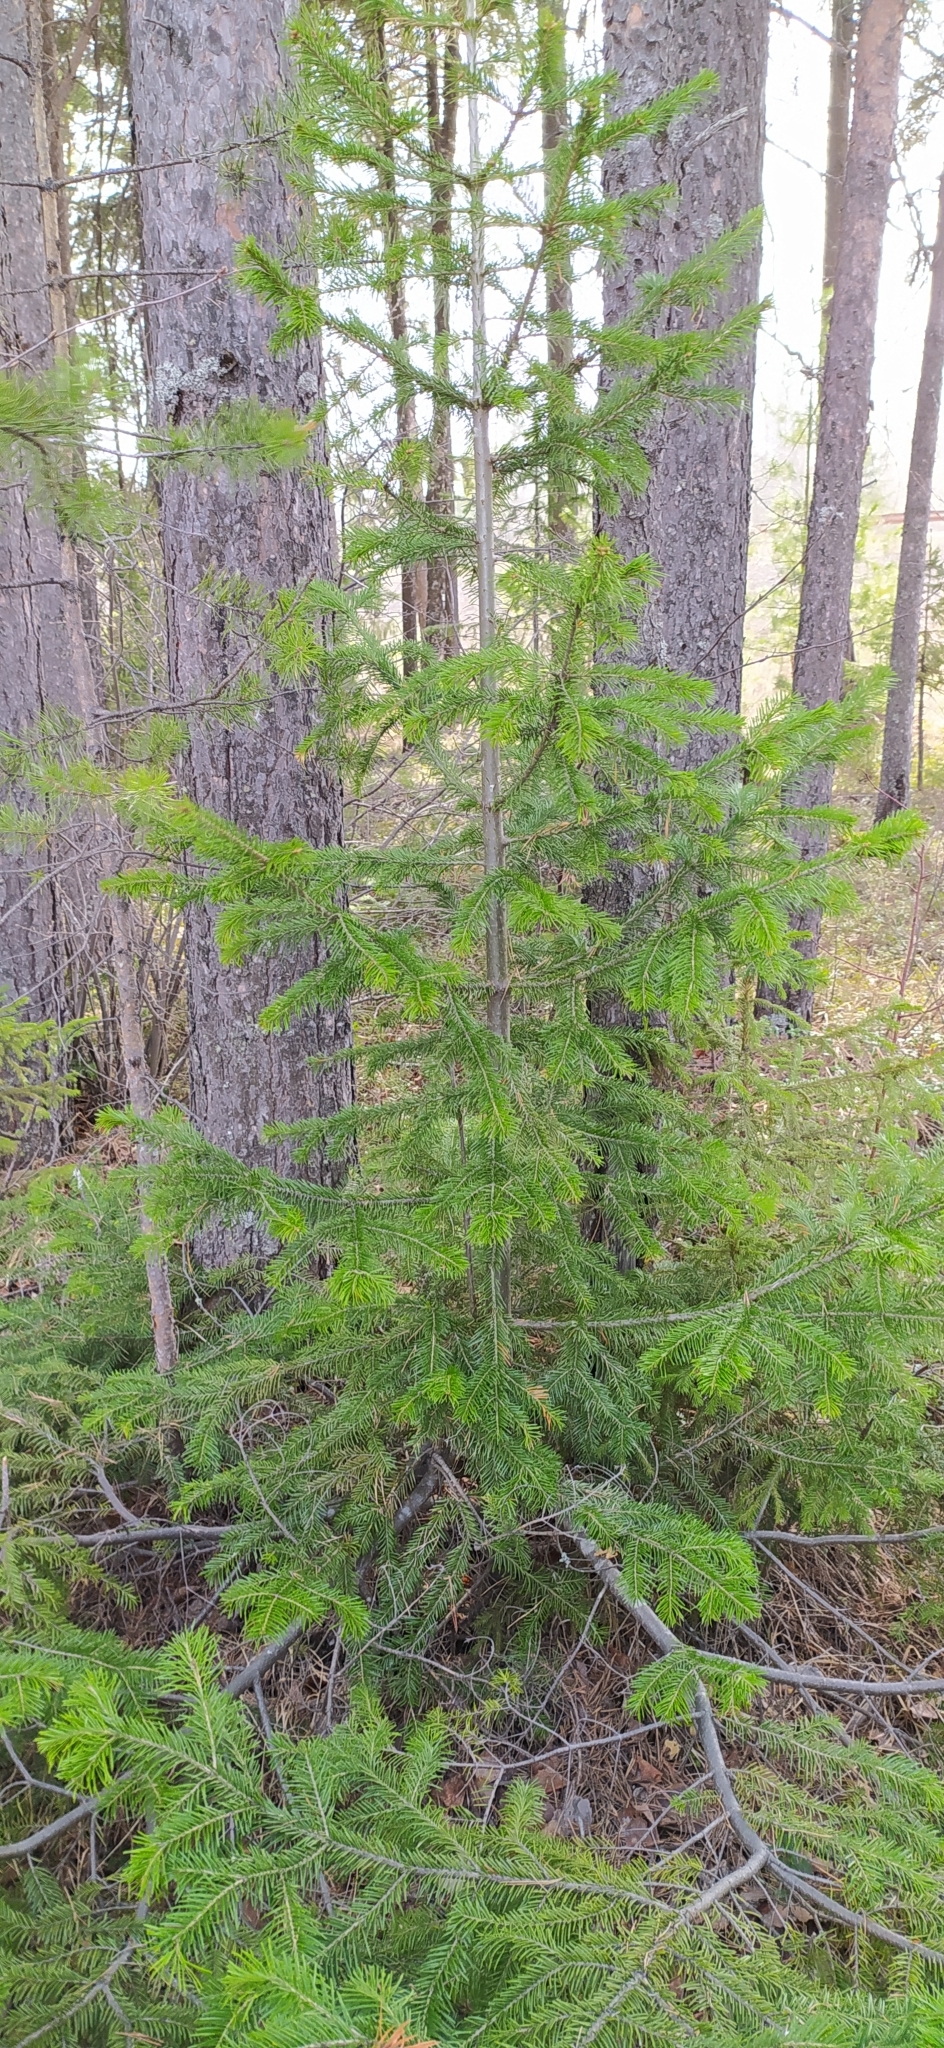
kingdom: Plantae
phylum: Tracheophyta
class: Pinopsida
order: Pinales
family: Pinaceae
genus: Abies
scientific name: Abies sibirica
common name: Siberian fir
